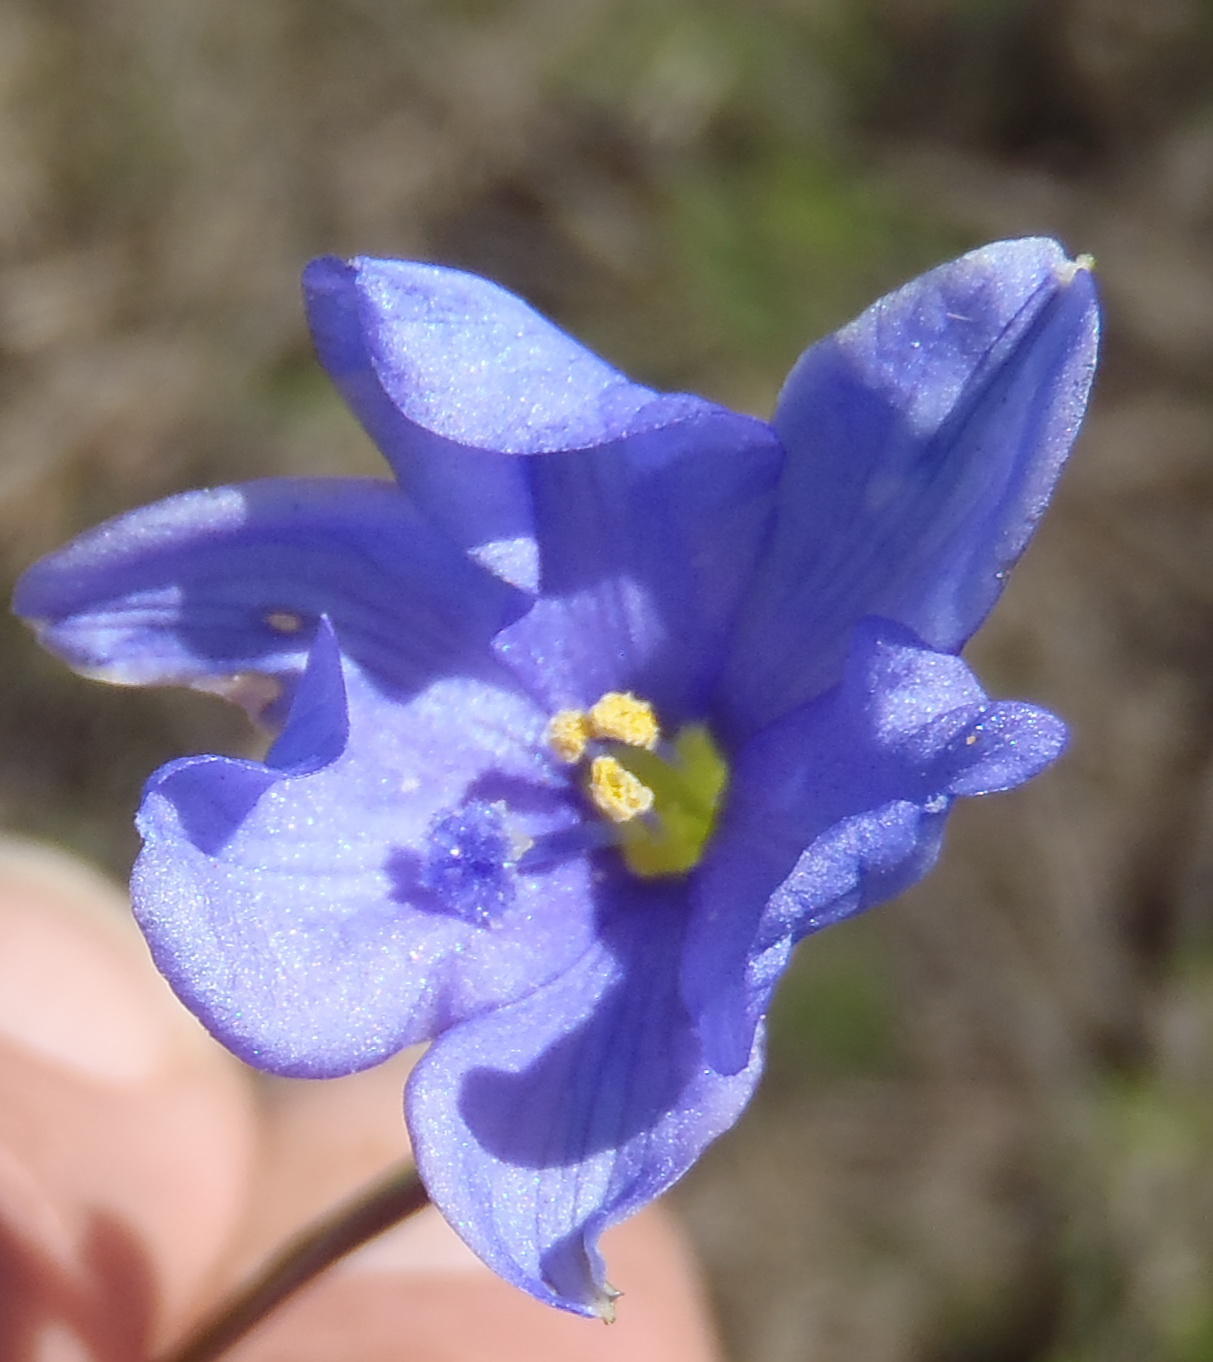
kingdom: Plantae
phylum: Tracheophyta
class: Liliopsida
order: Asparagales
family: Iridaceae
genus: Aristea
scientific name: Aristea pusilla
